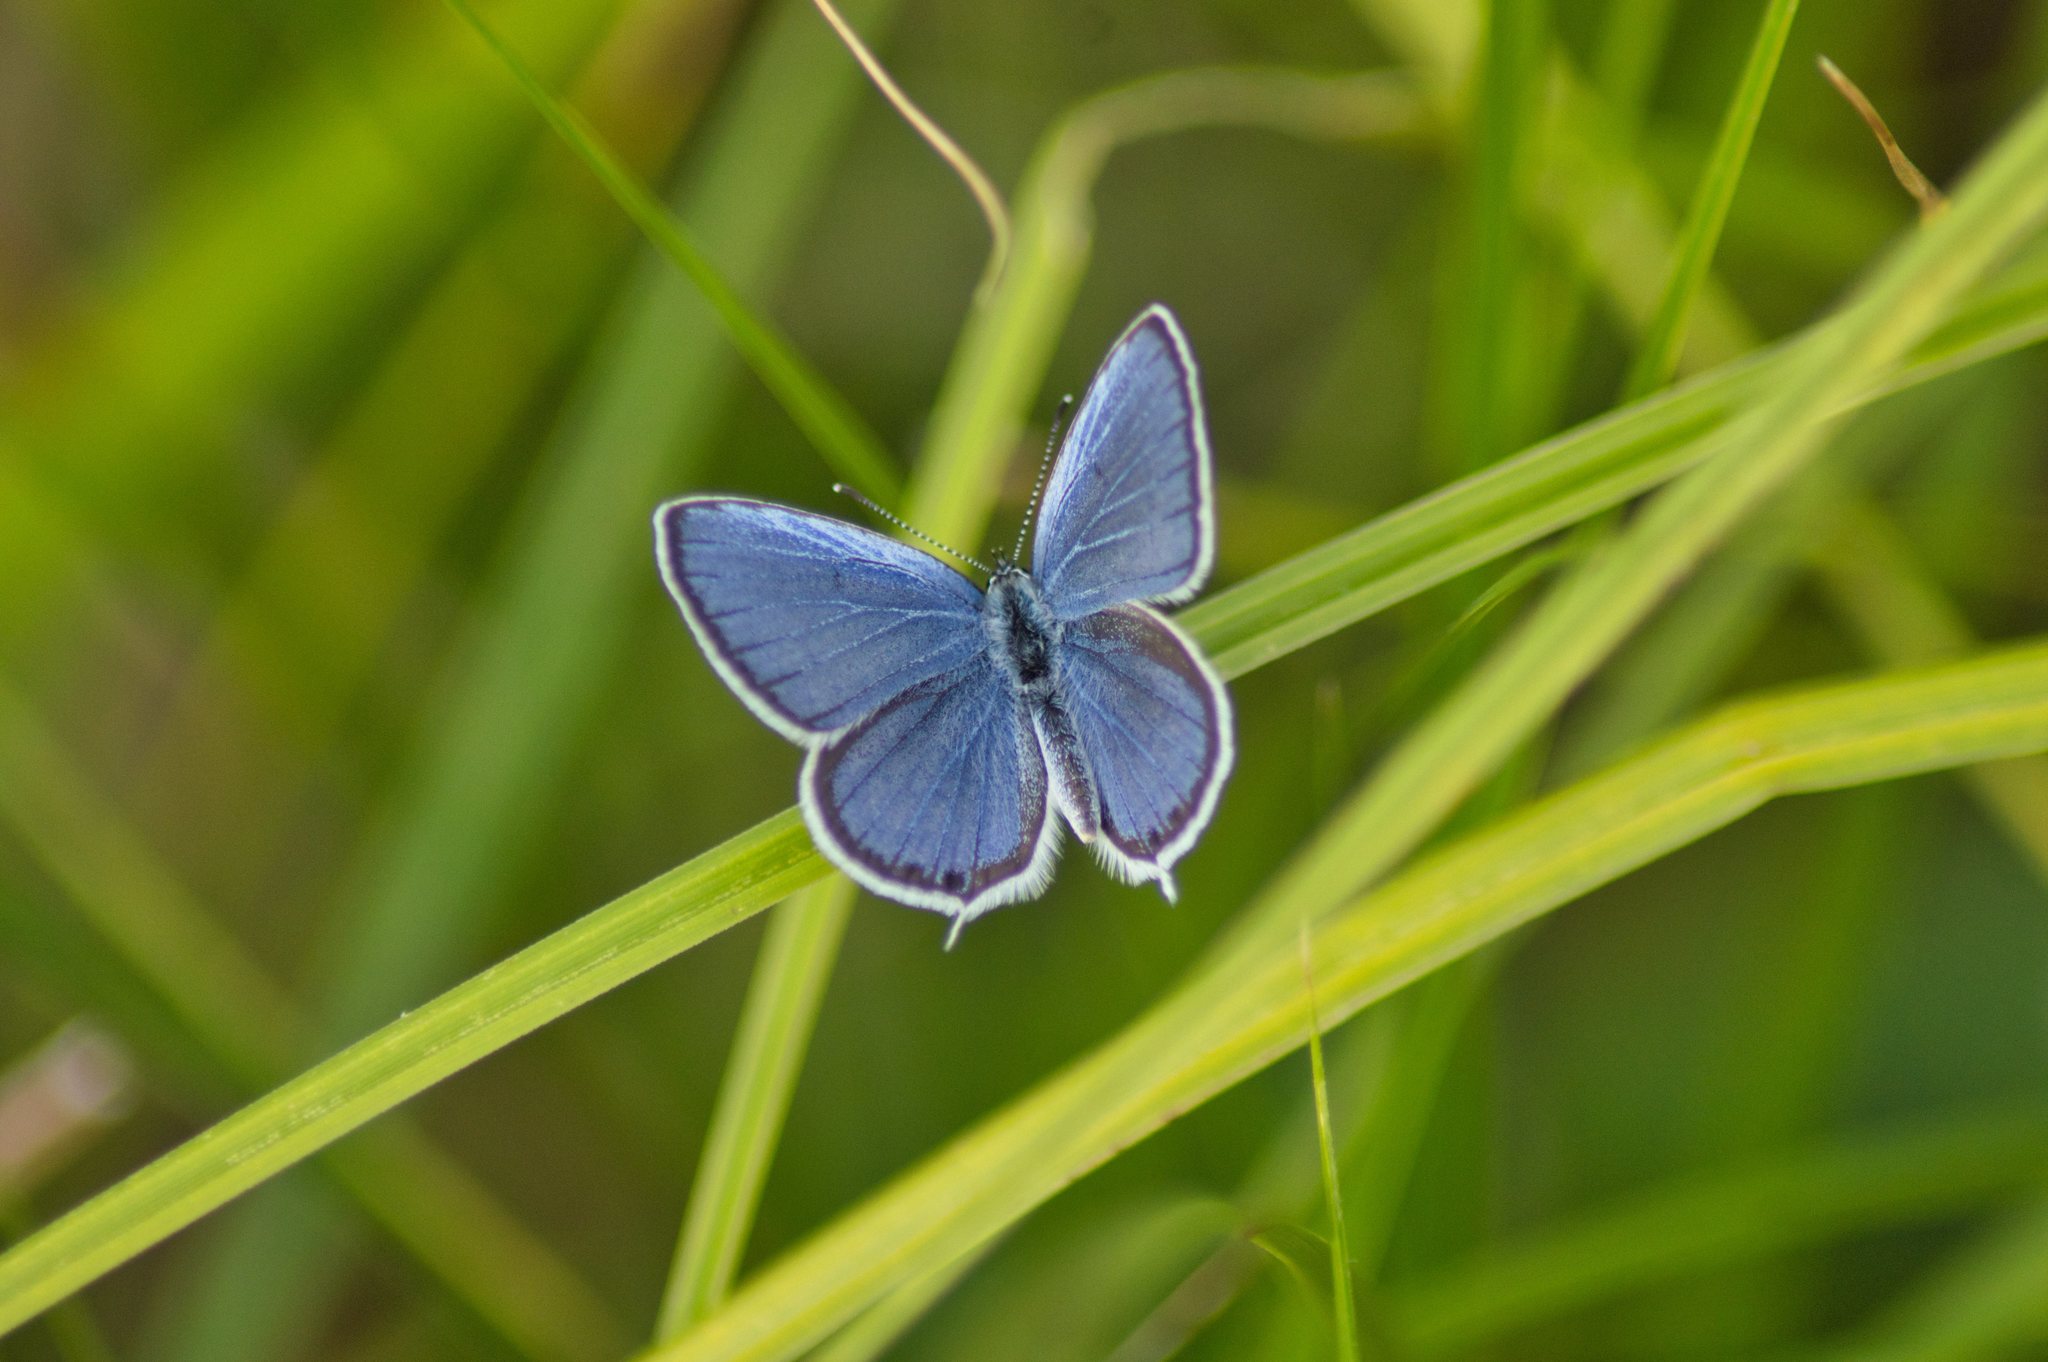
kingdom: Animalia
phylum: Arthropoda
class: Insecta
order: Lepidoptera
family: Lycaenidae
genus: Elkalyce
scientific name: Elkalyce argiades
